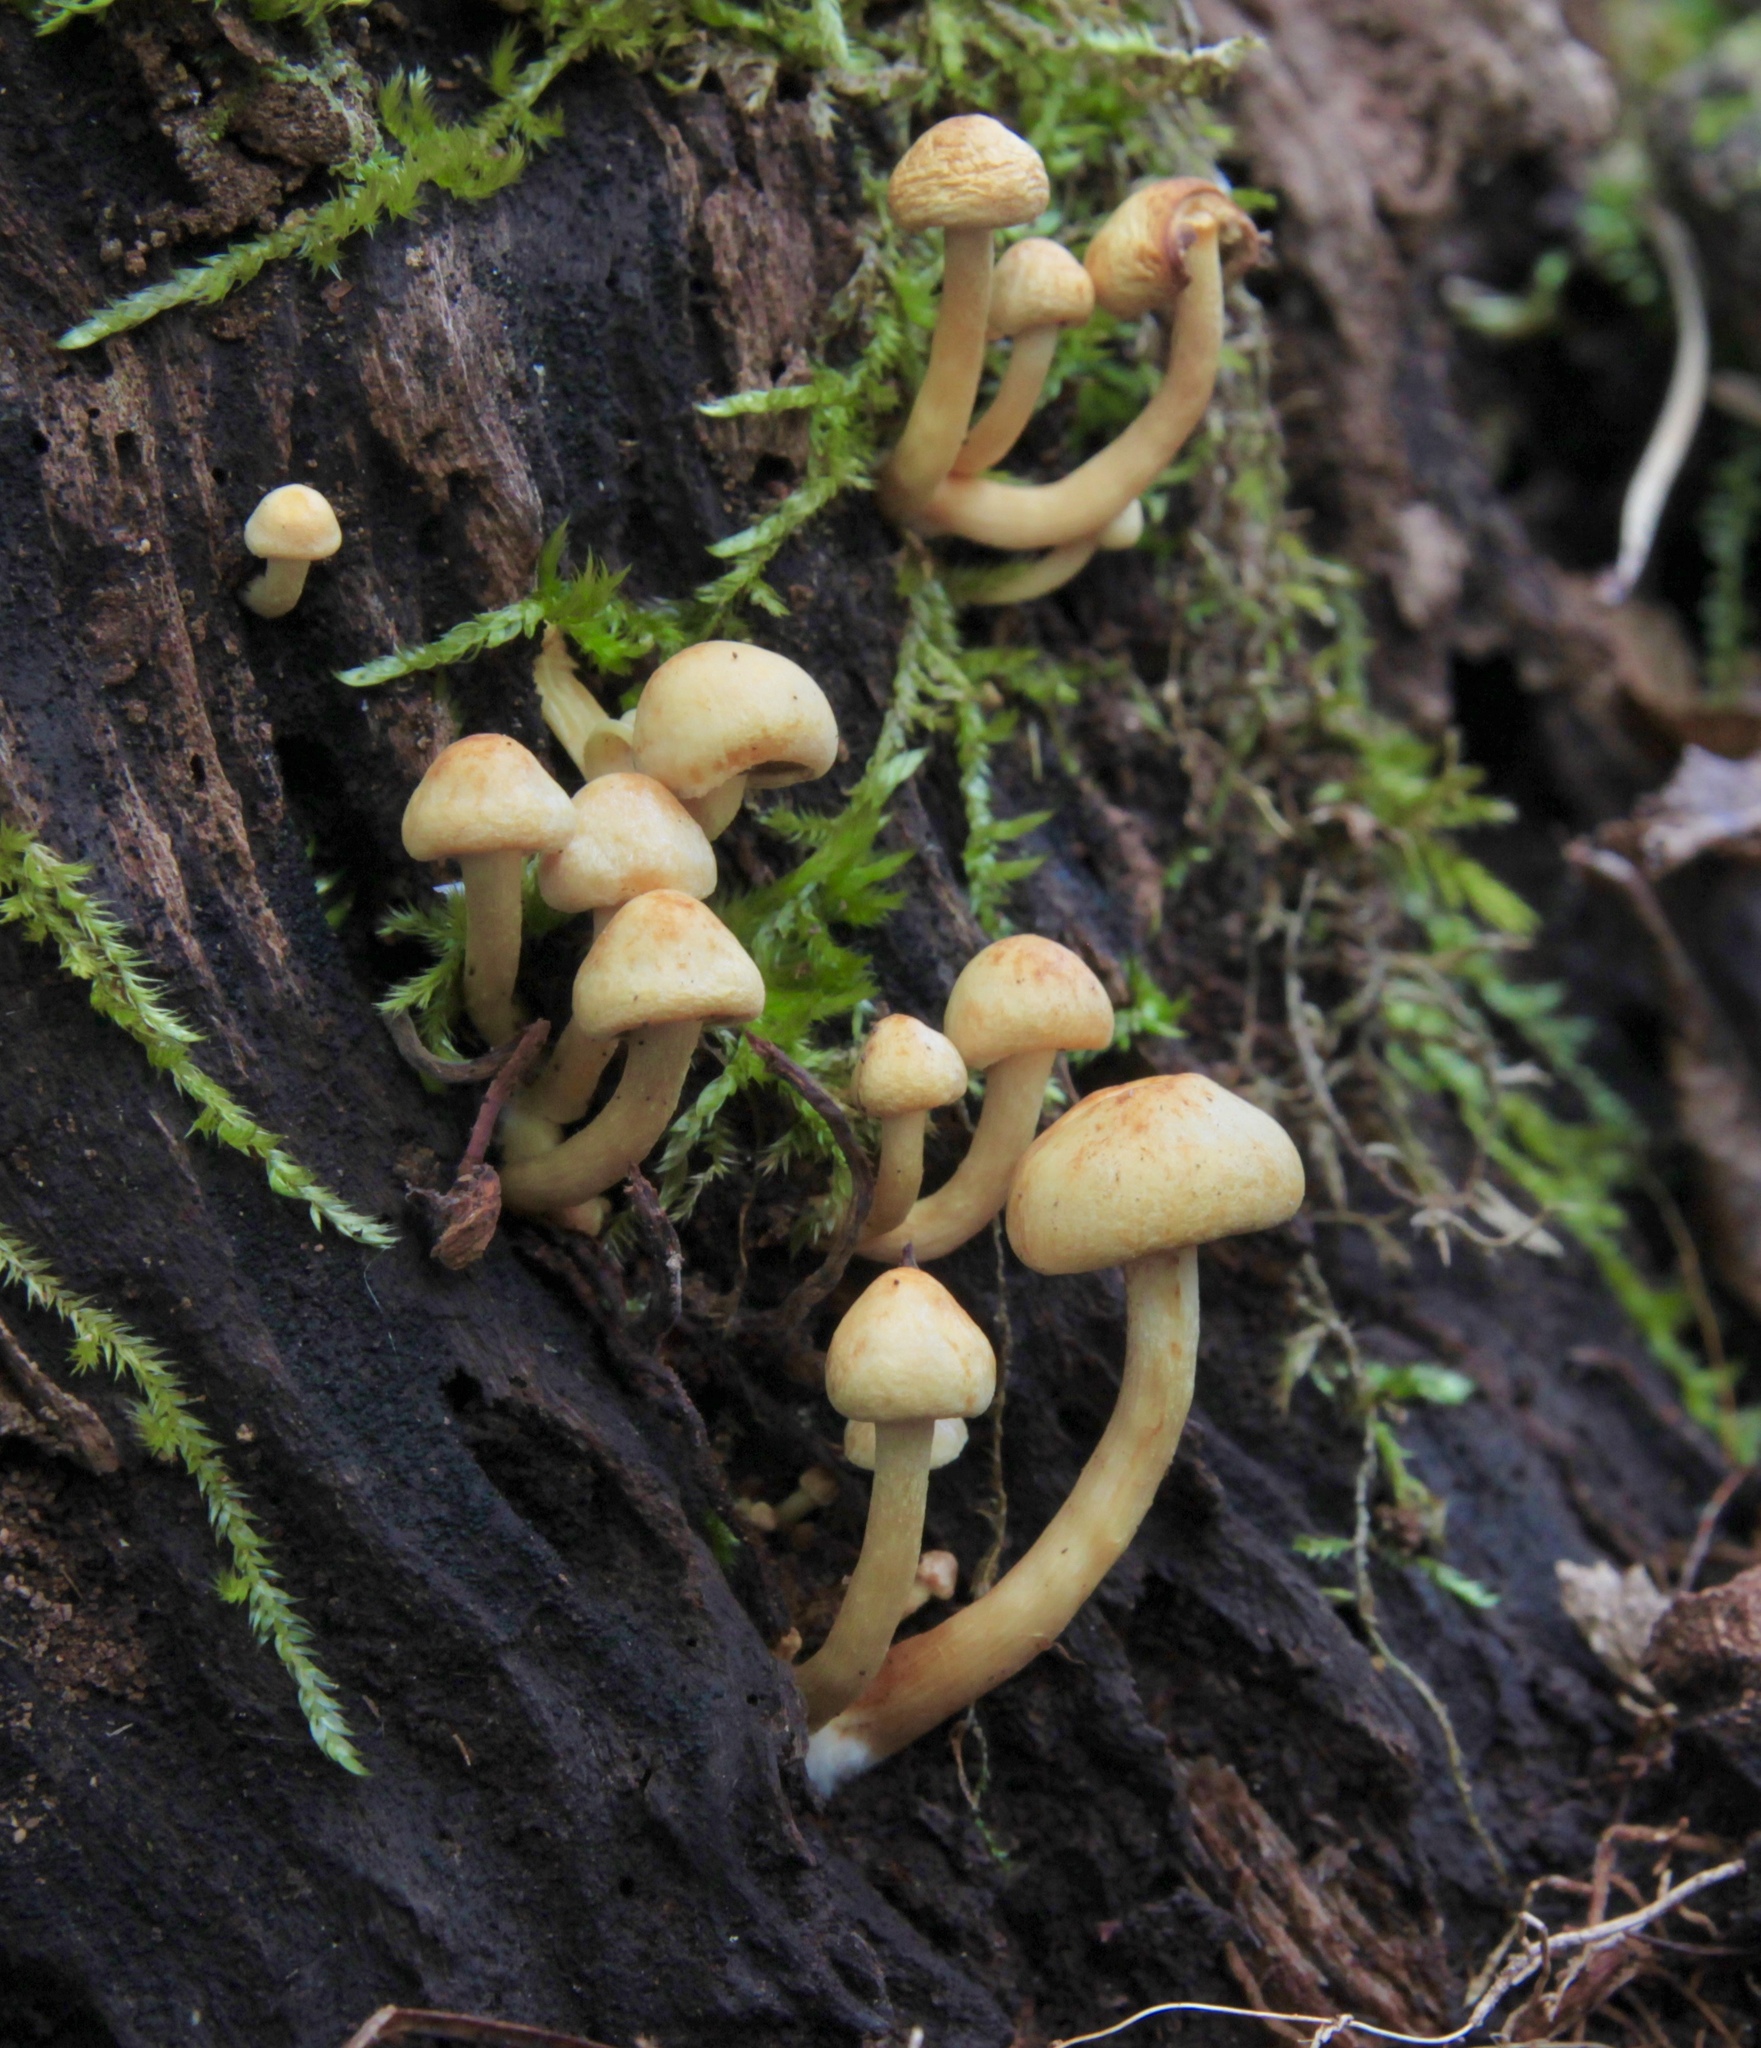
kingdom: Fungi
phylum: Basidiomycota
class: Agaricomycetes
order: Agaricales
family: Strophariaceae
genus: Hypholoma
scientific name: Hypholoma fasciculare
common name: Sulphur tuft
